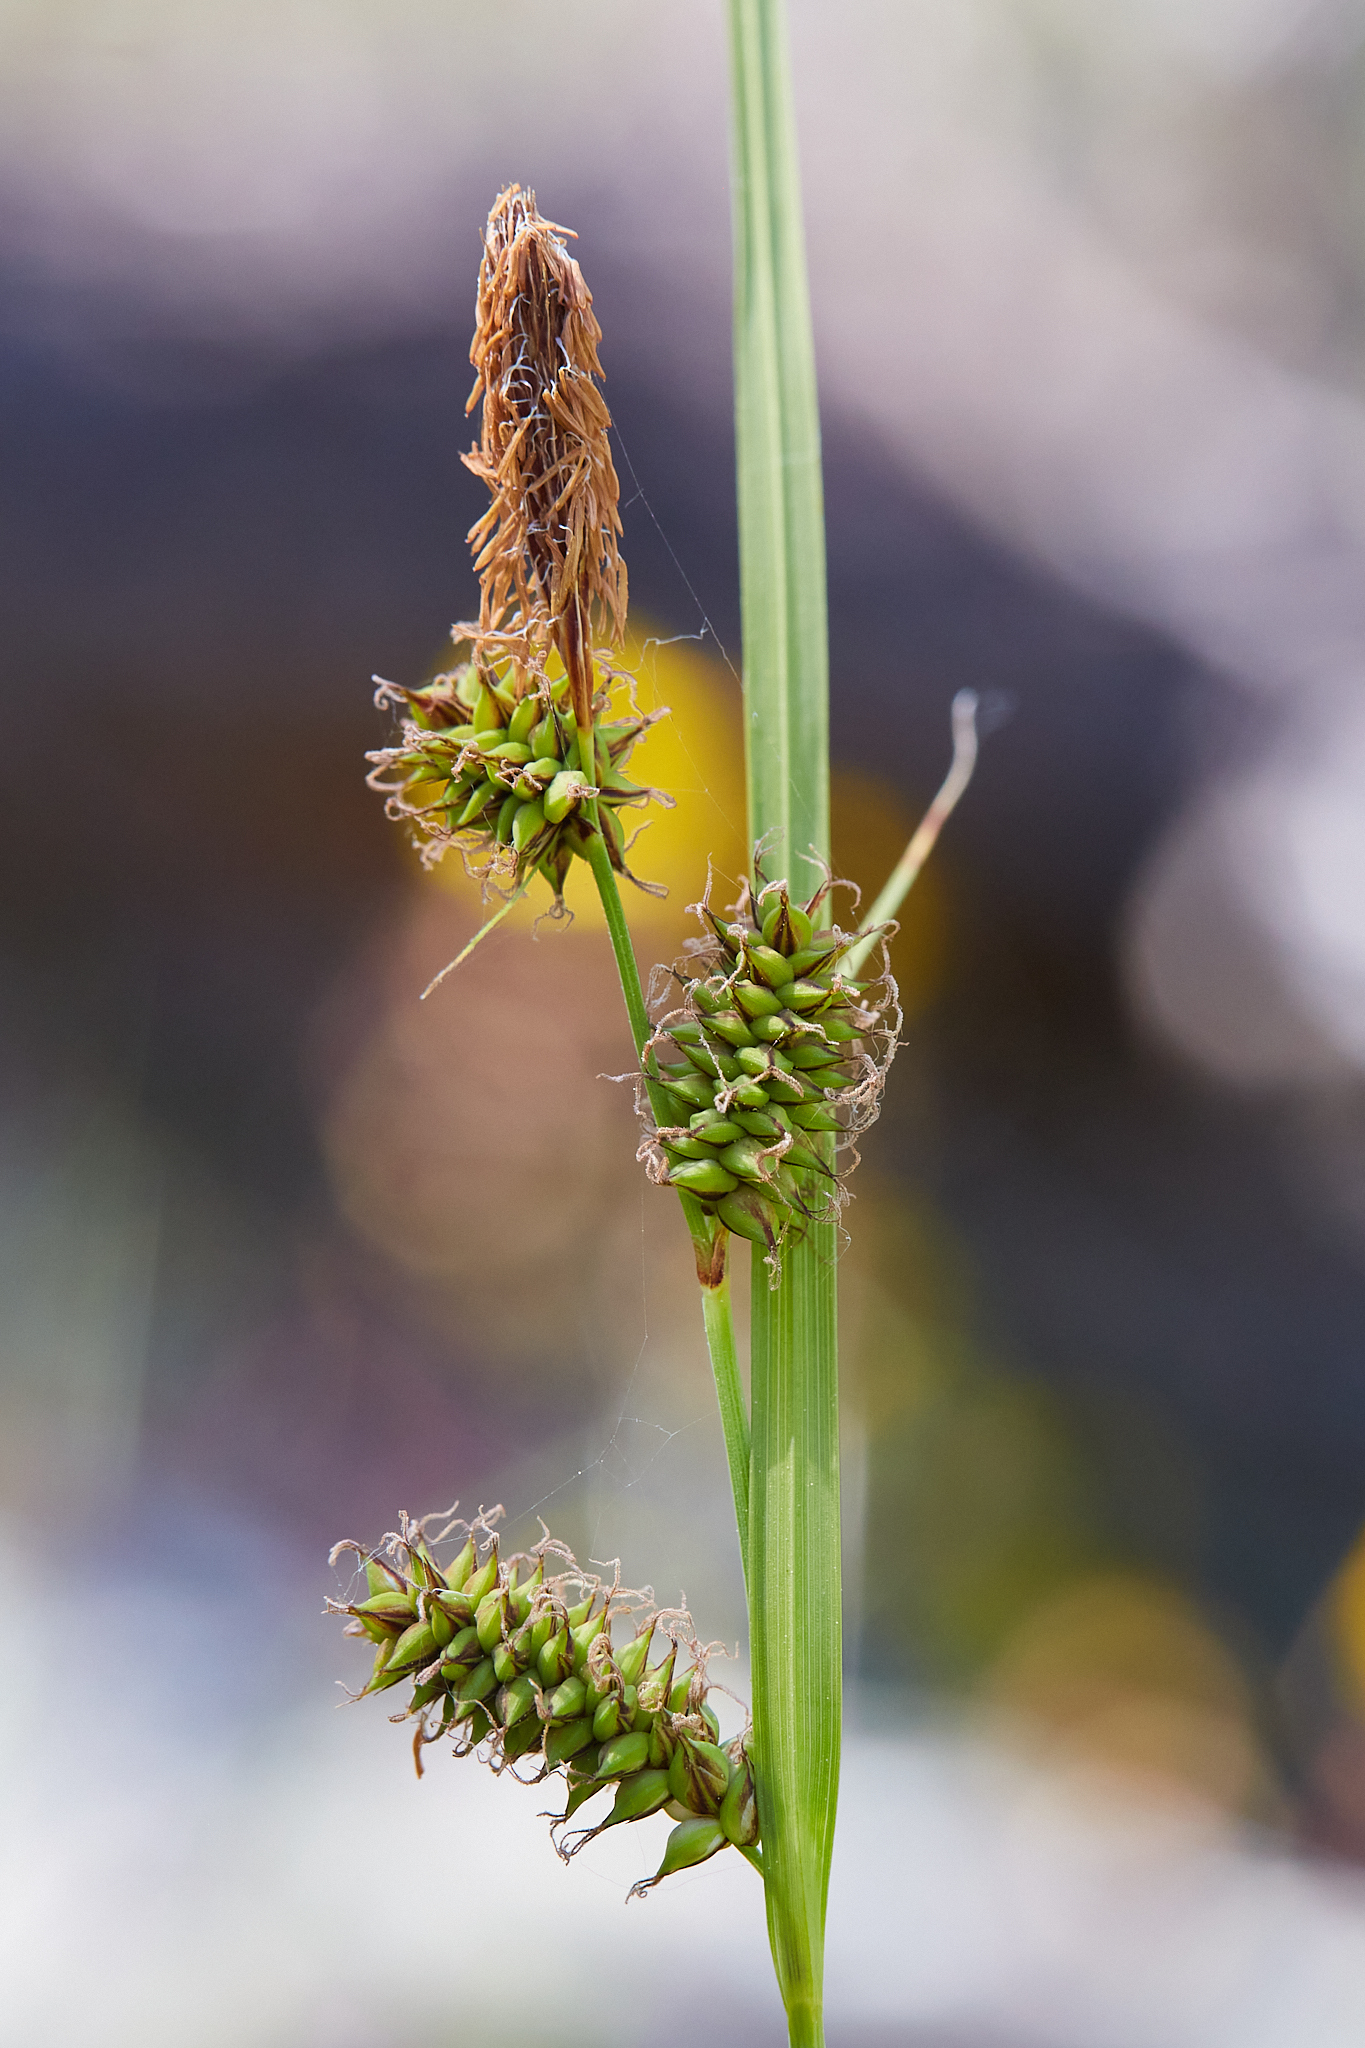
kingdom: Plantae
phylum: Tracheophyta
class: Liliopsida
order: Poales
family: Cyperaceae
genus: Carex
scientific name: Carex serratodens
